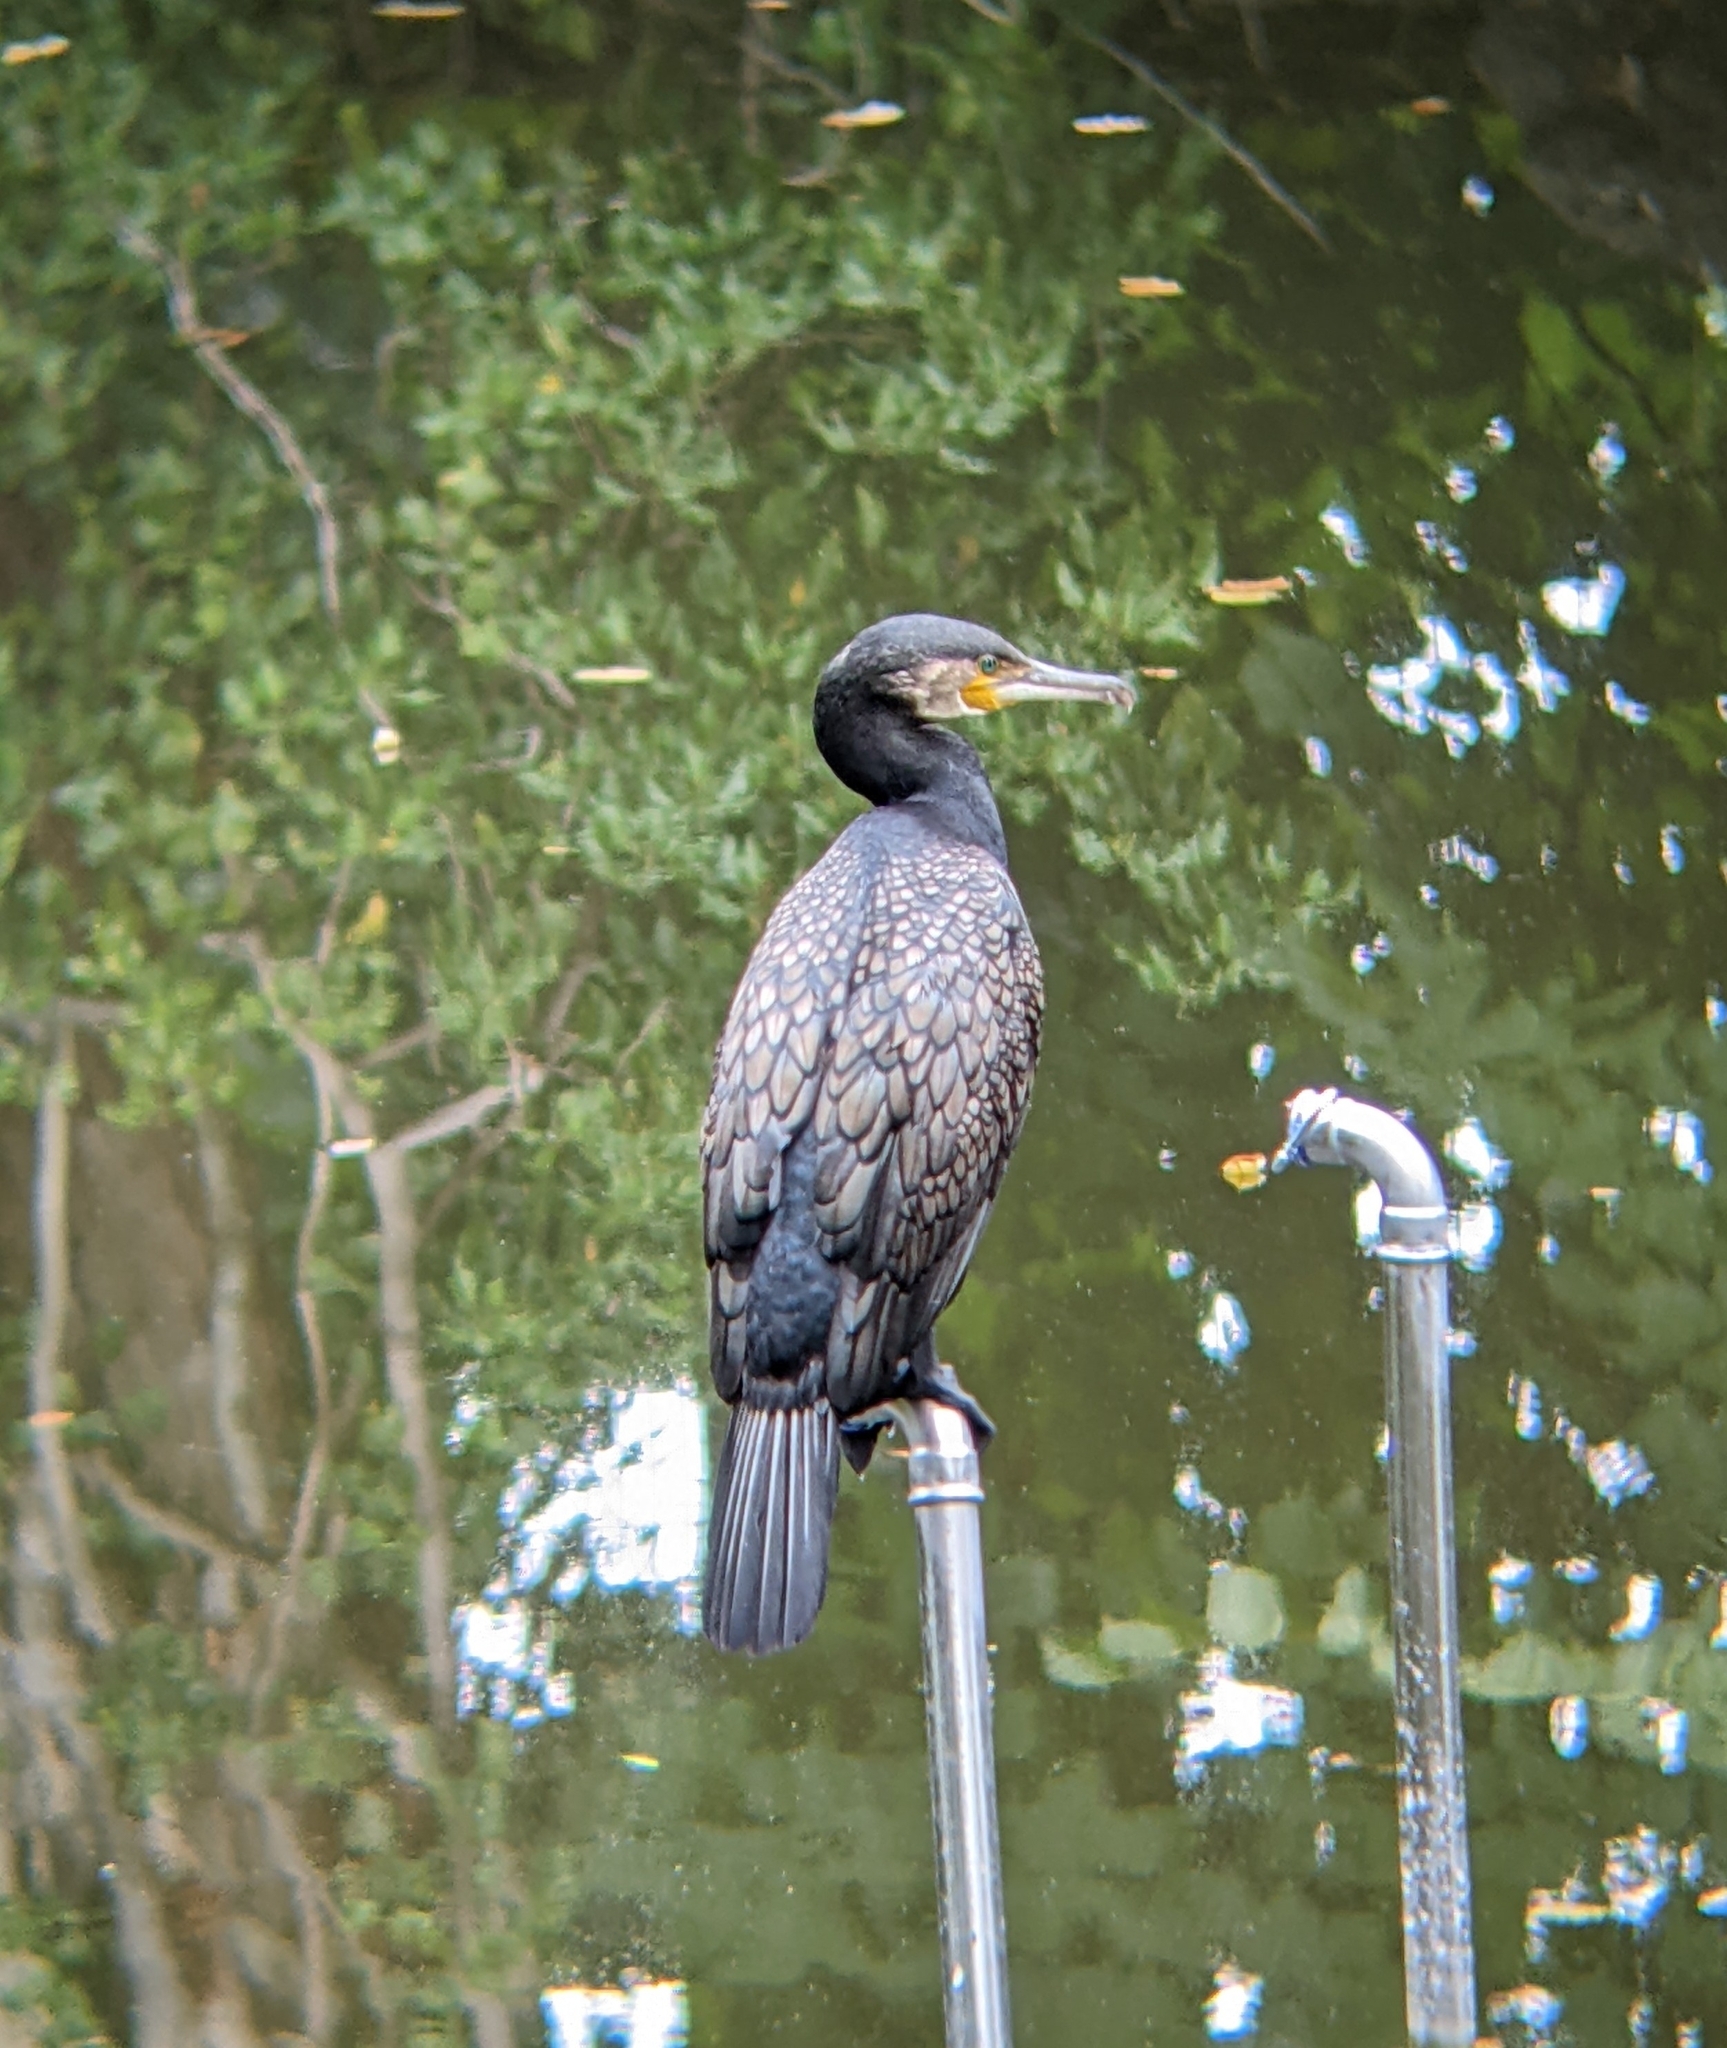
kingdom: Animalia
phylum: Chordata
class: Aves
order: Suliformes
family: Phalacrocoracidae
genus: Phalacrocorax
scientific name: Phalacrocorax carbo
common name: Great cormorant
